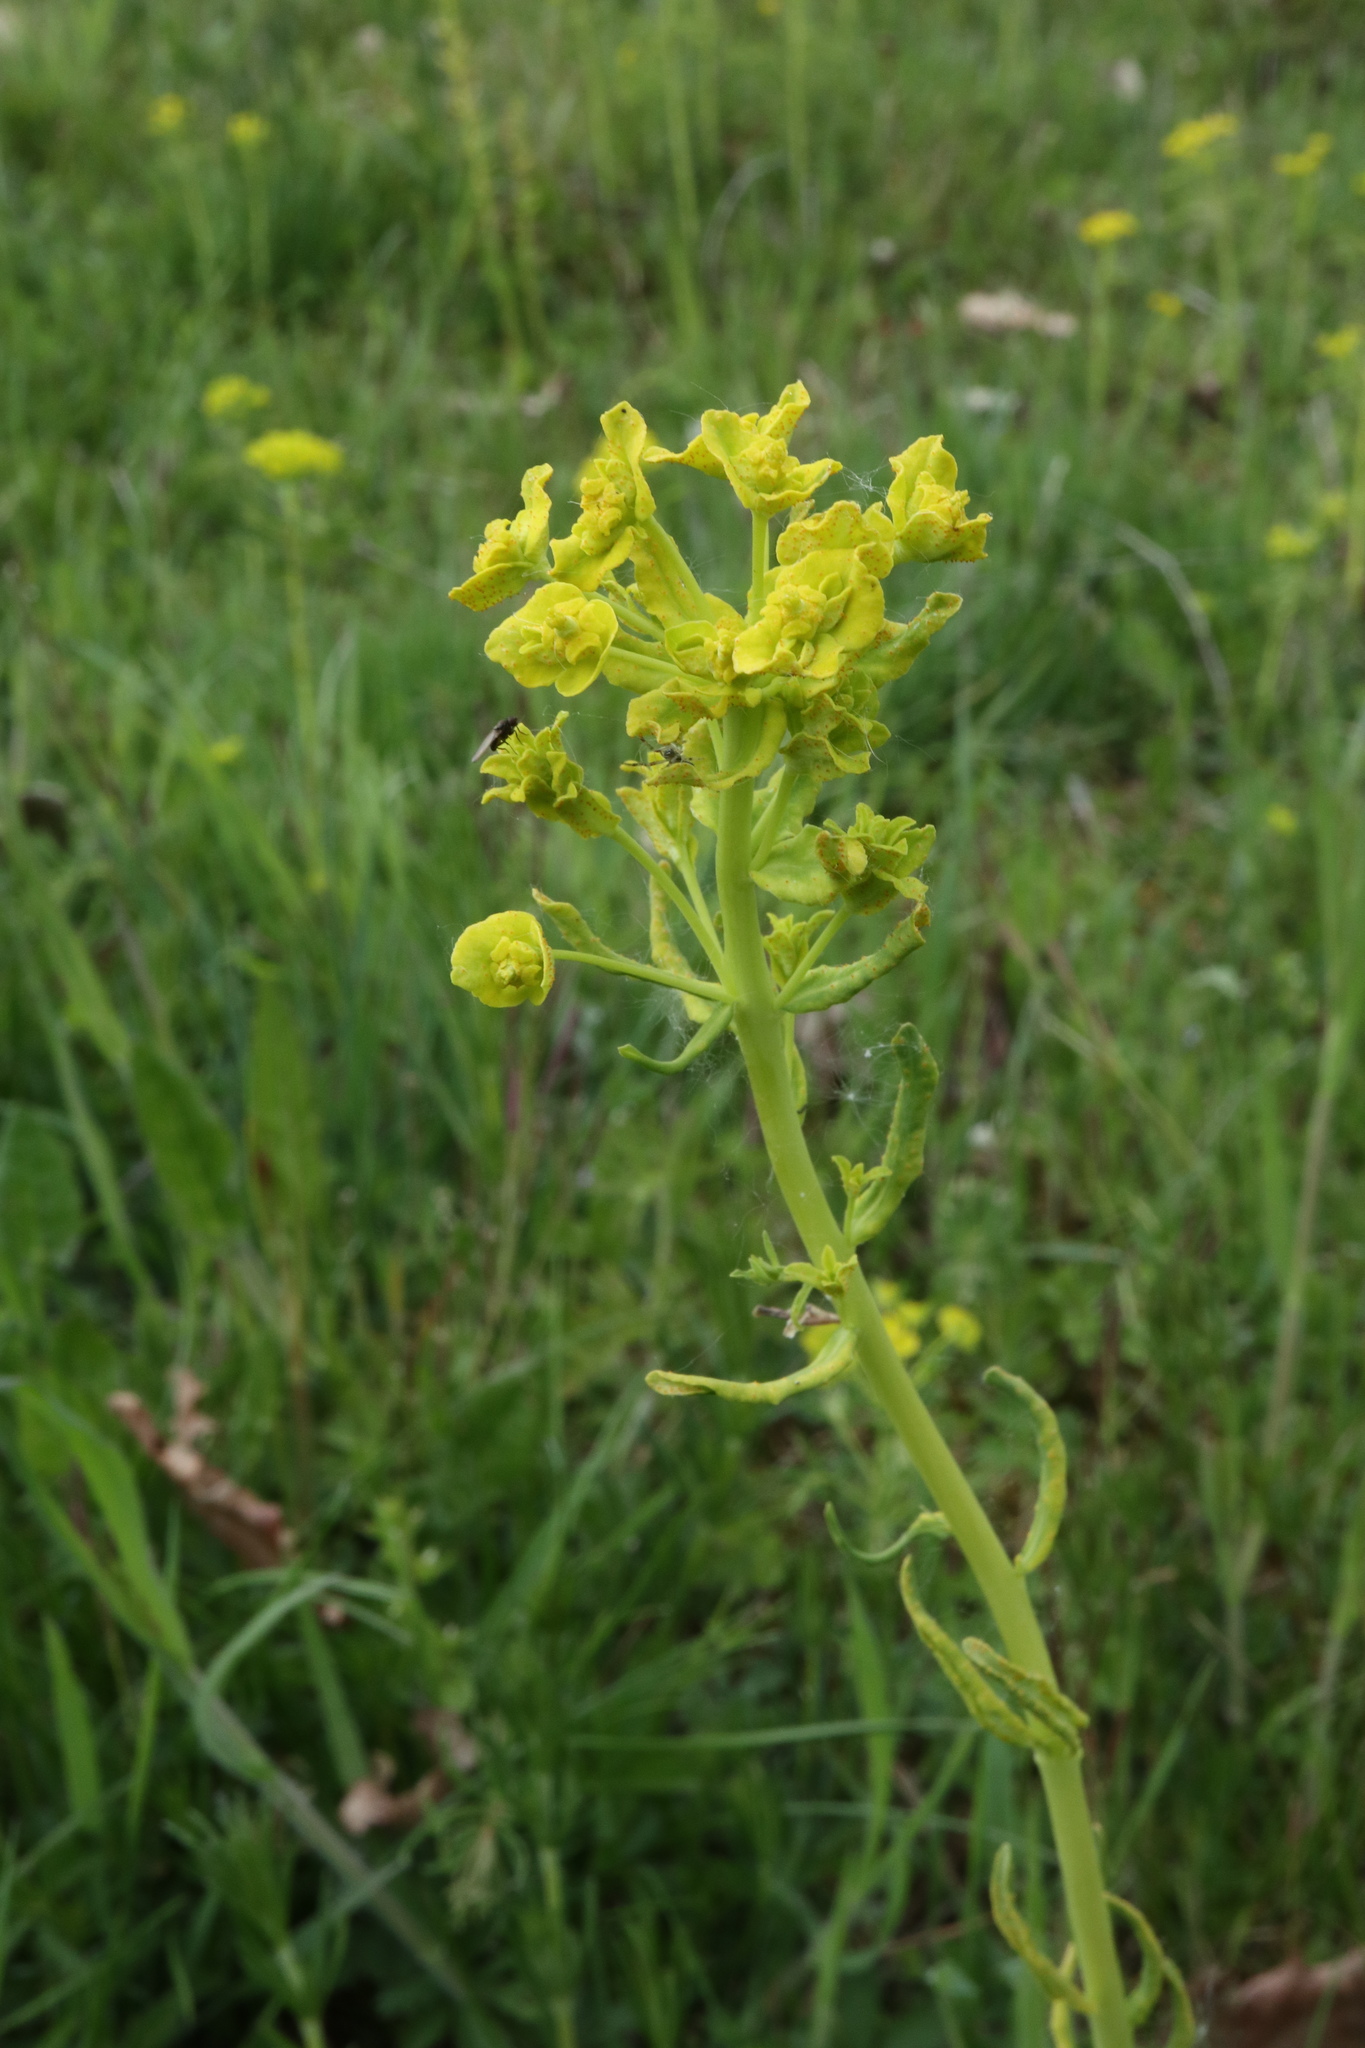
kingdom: Plantae
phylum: Tracheophyta
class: Magnoliopsida
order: Malpighiales
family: Euphorbiaceae
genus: Euphorbia
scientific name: Euphorbia cyparissias
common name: Cypress spurge
